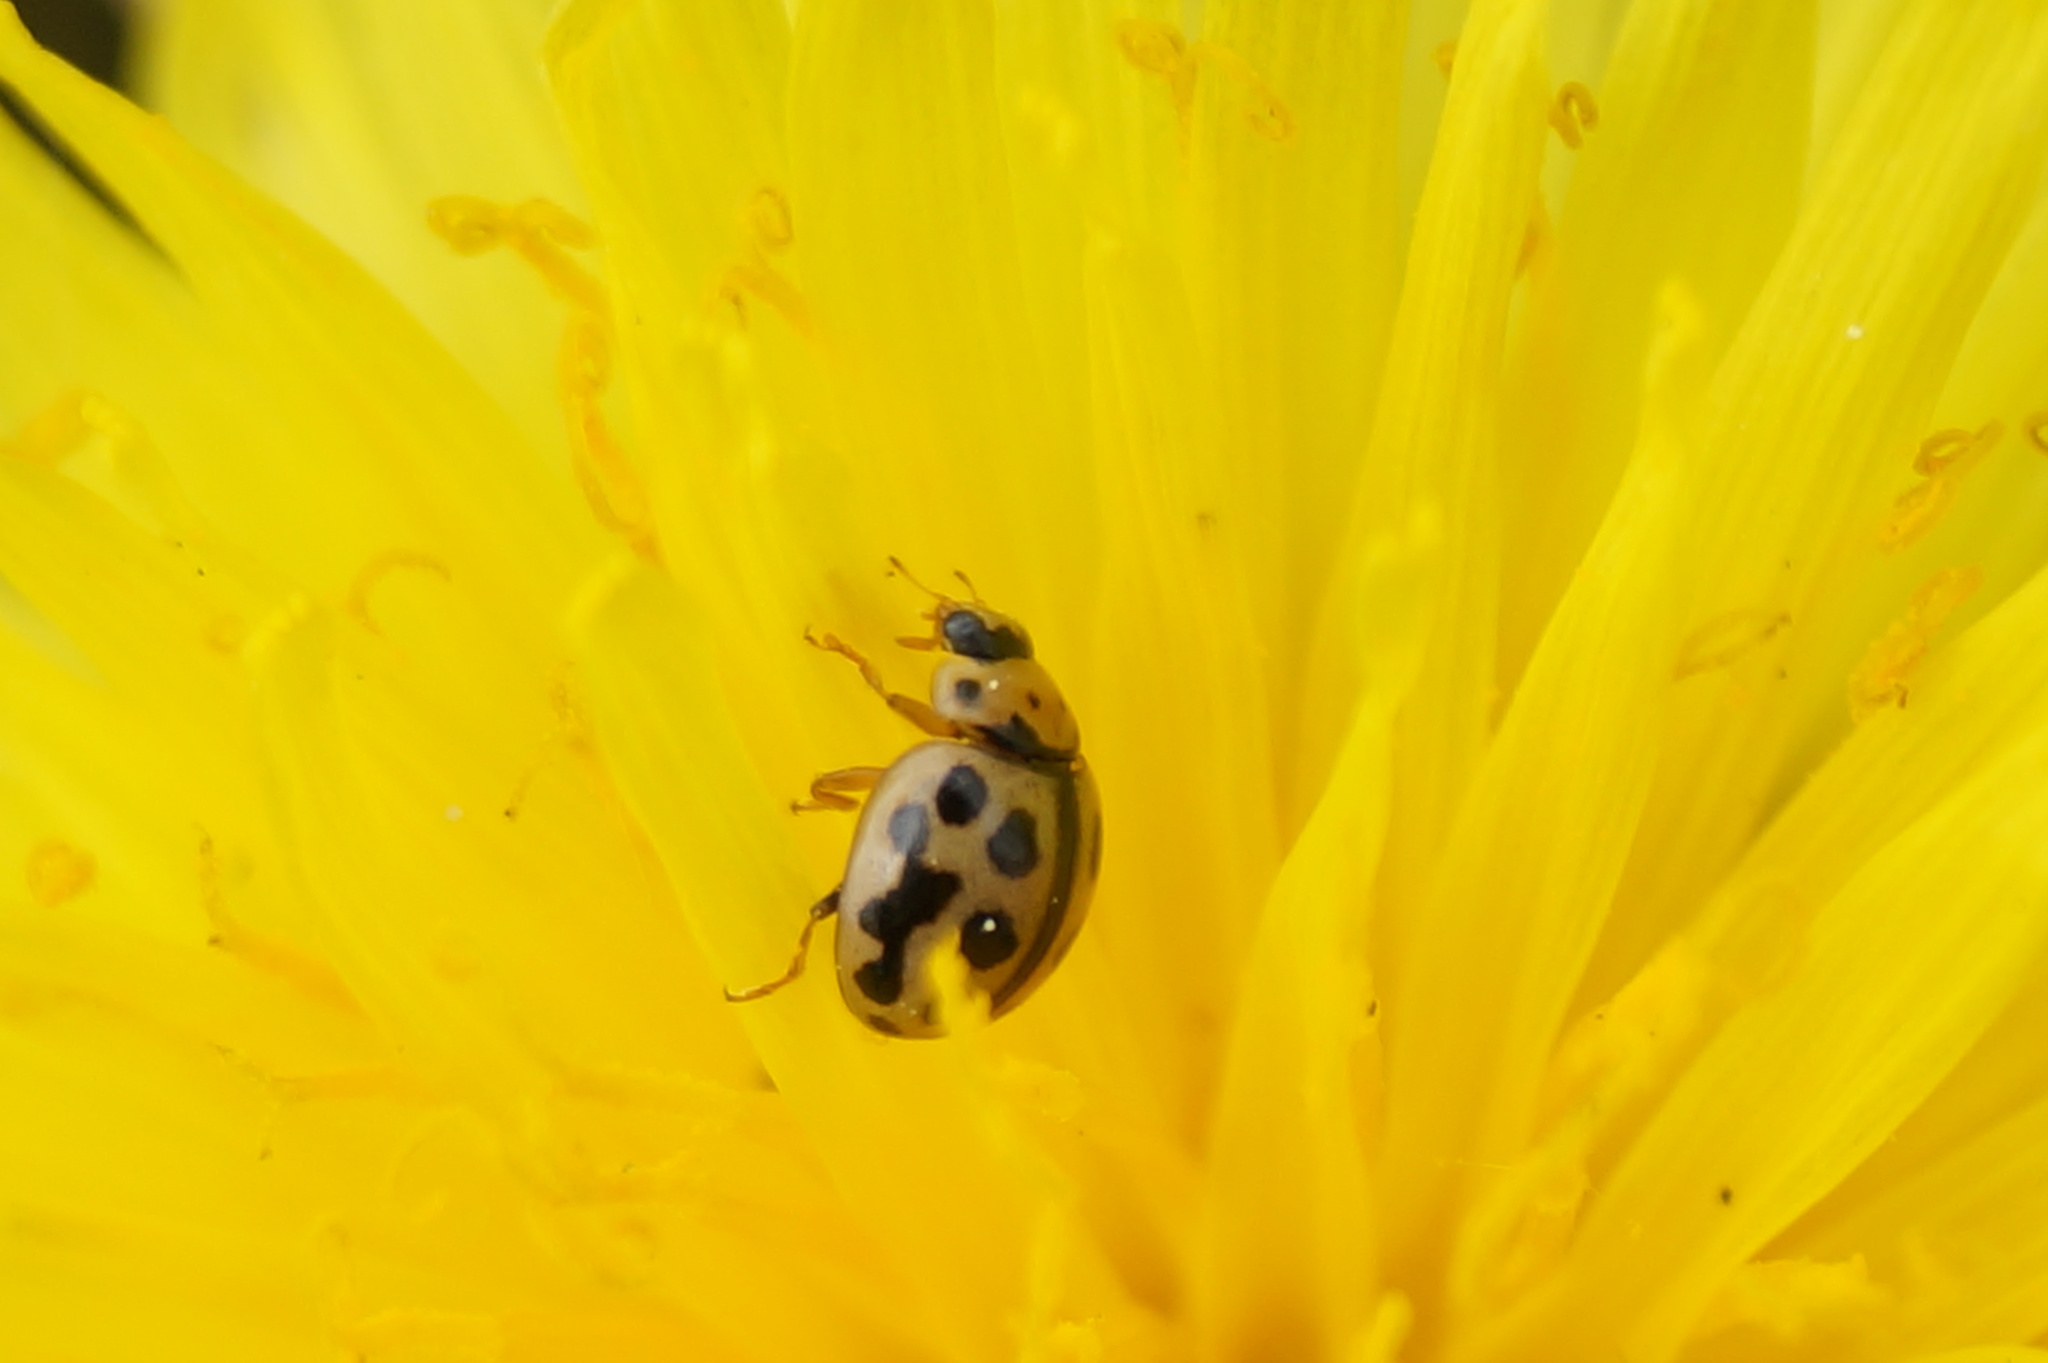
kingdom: Animalia
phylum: Arthropoda
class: Insecta
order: Coleoptera
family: Coccinellidae
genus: Tytthaspis
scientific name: Tytthaspis sedecimpunctata
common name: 16-spot ladybird
